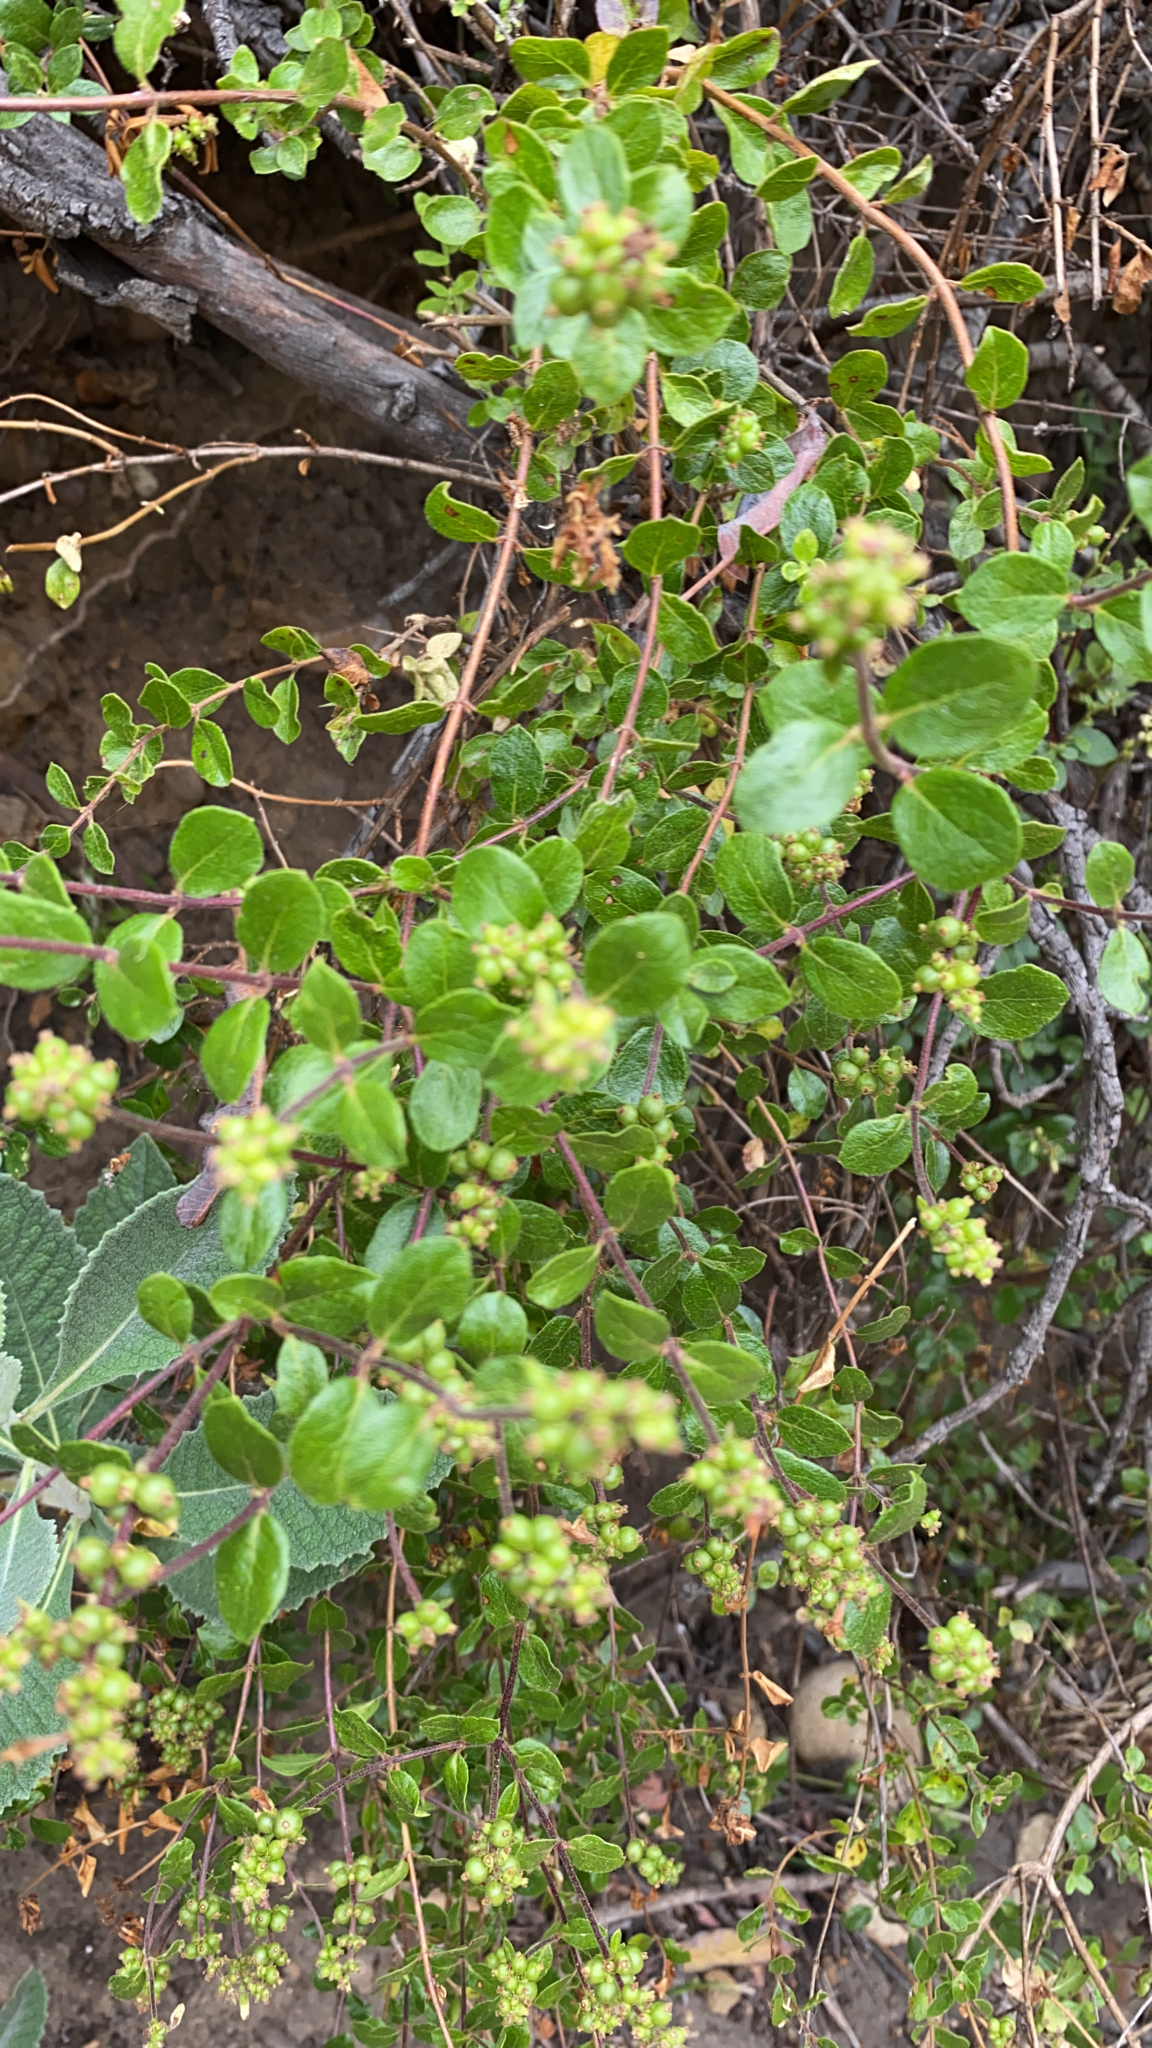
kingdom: Plantae
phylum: Tracheophyta
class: Magnoliopsida
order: Dipsacales
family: Caprifoliaceae
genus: Lonicera
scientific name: Lonicera subspicata
